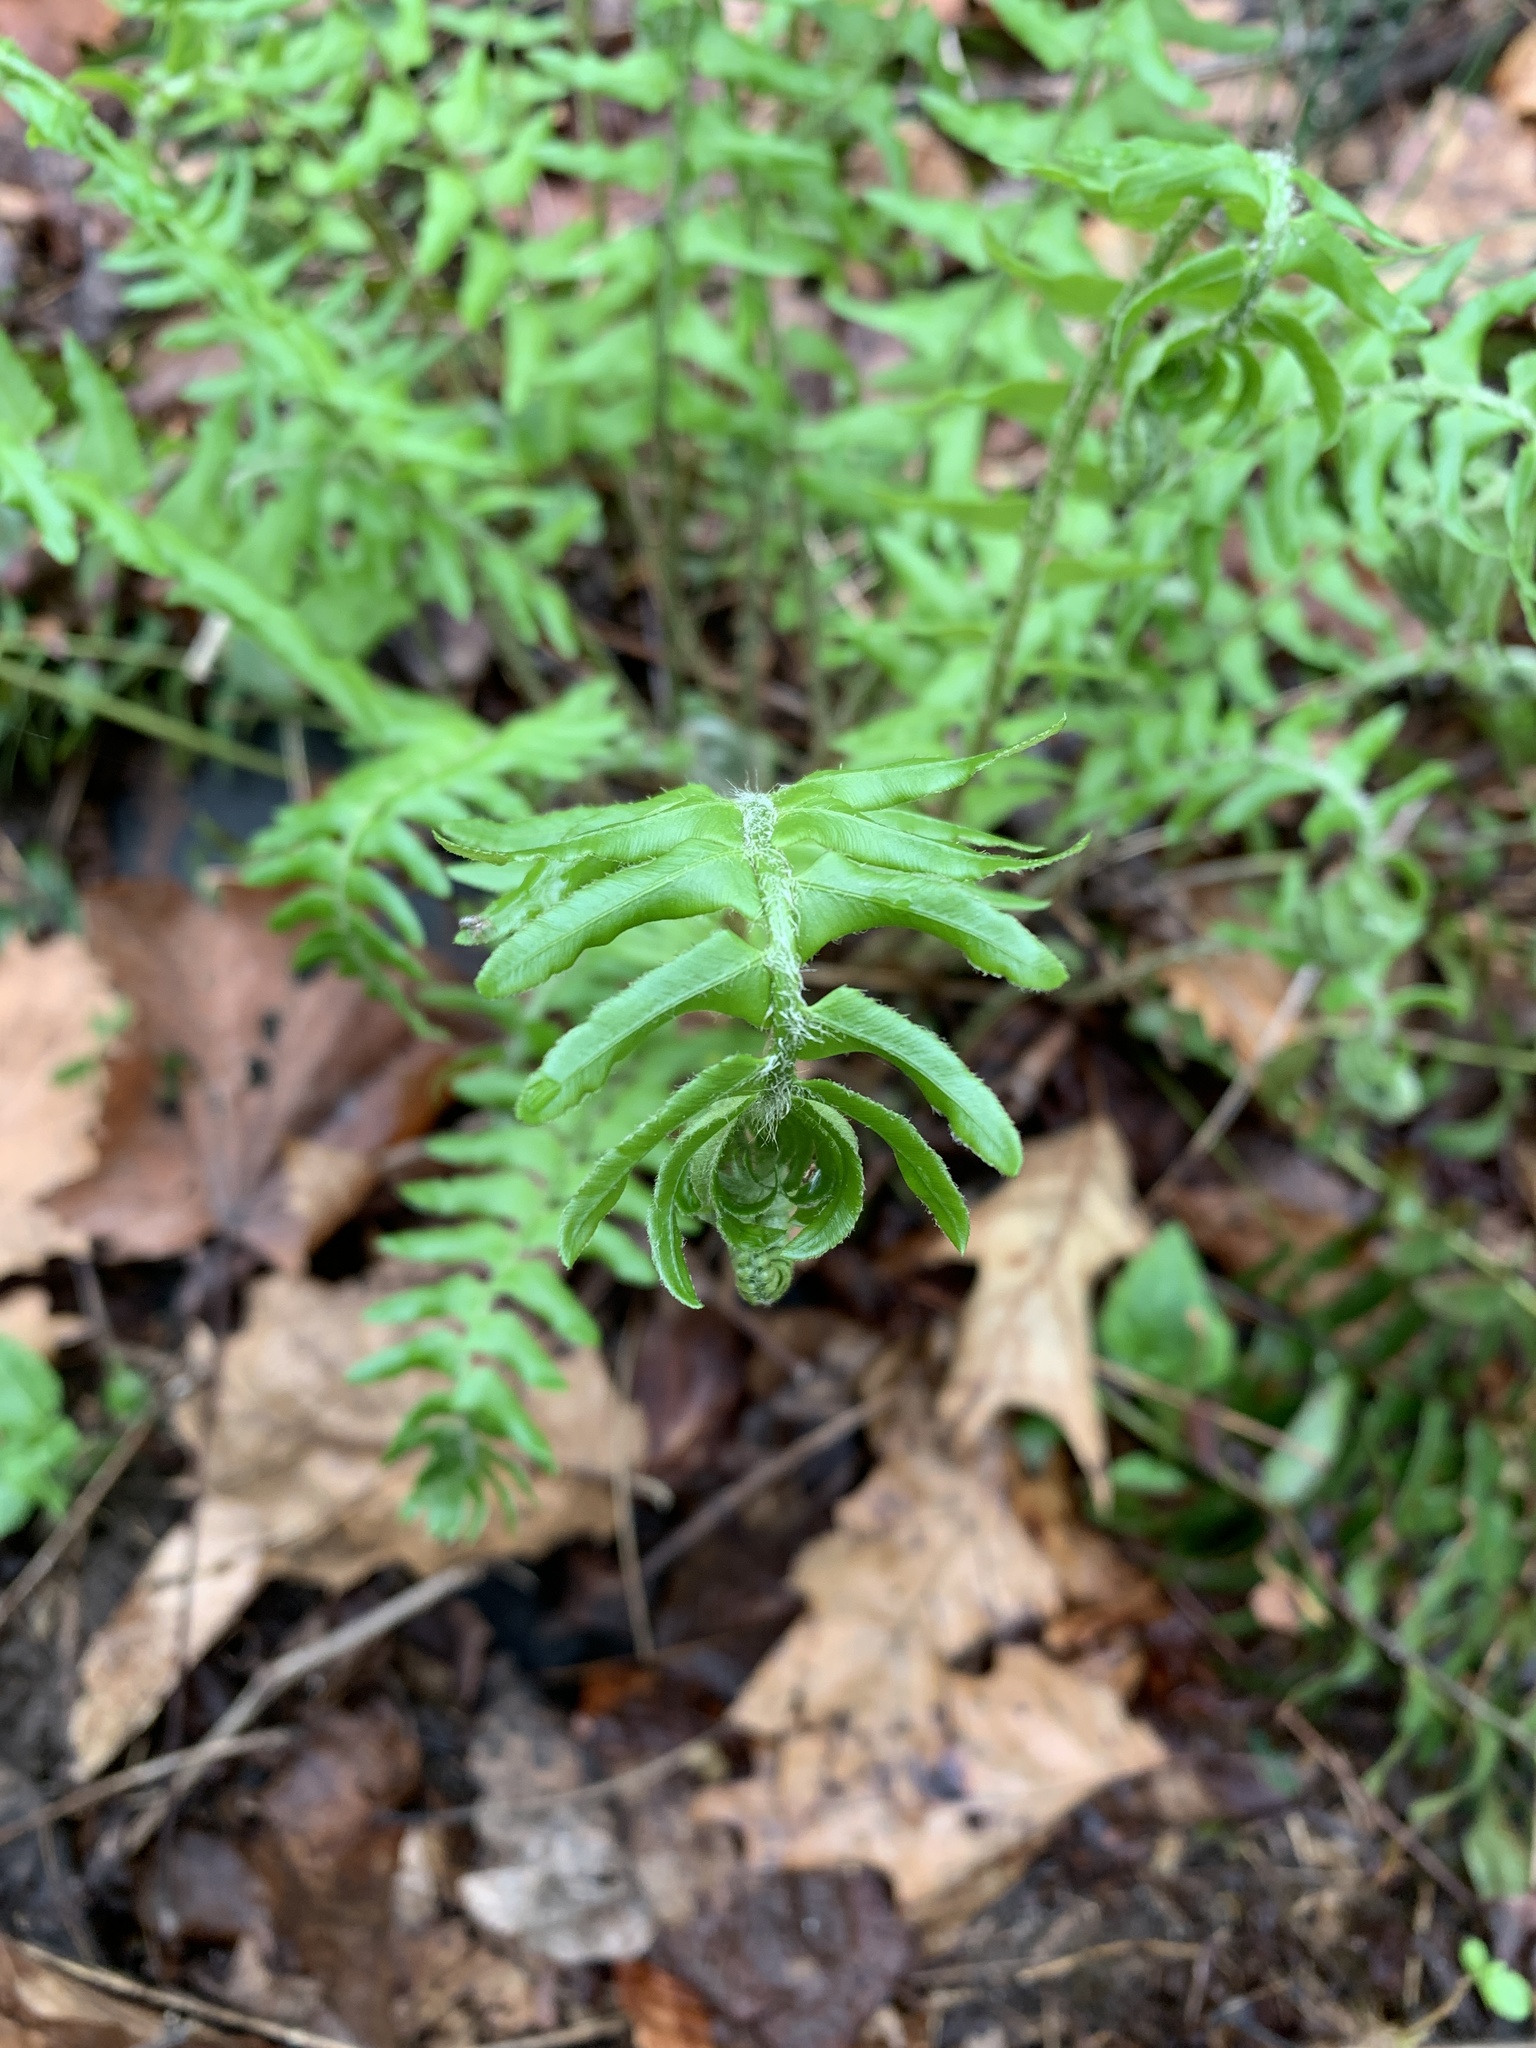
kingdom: Plantae
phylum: Tracheophyta
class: Polypodiopsida
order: Polypodiales
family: Dryopteridaceae
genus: Polystichum
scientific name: Polystichum acrostichoides
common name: Christmas fern
